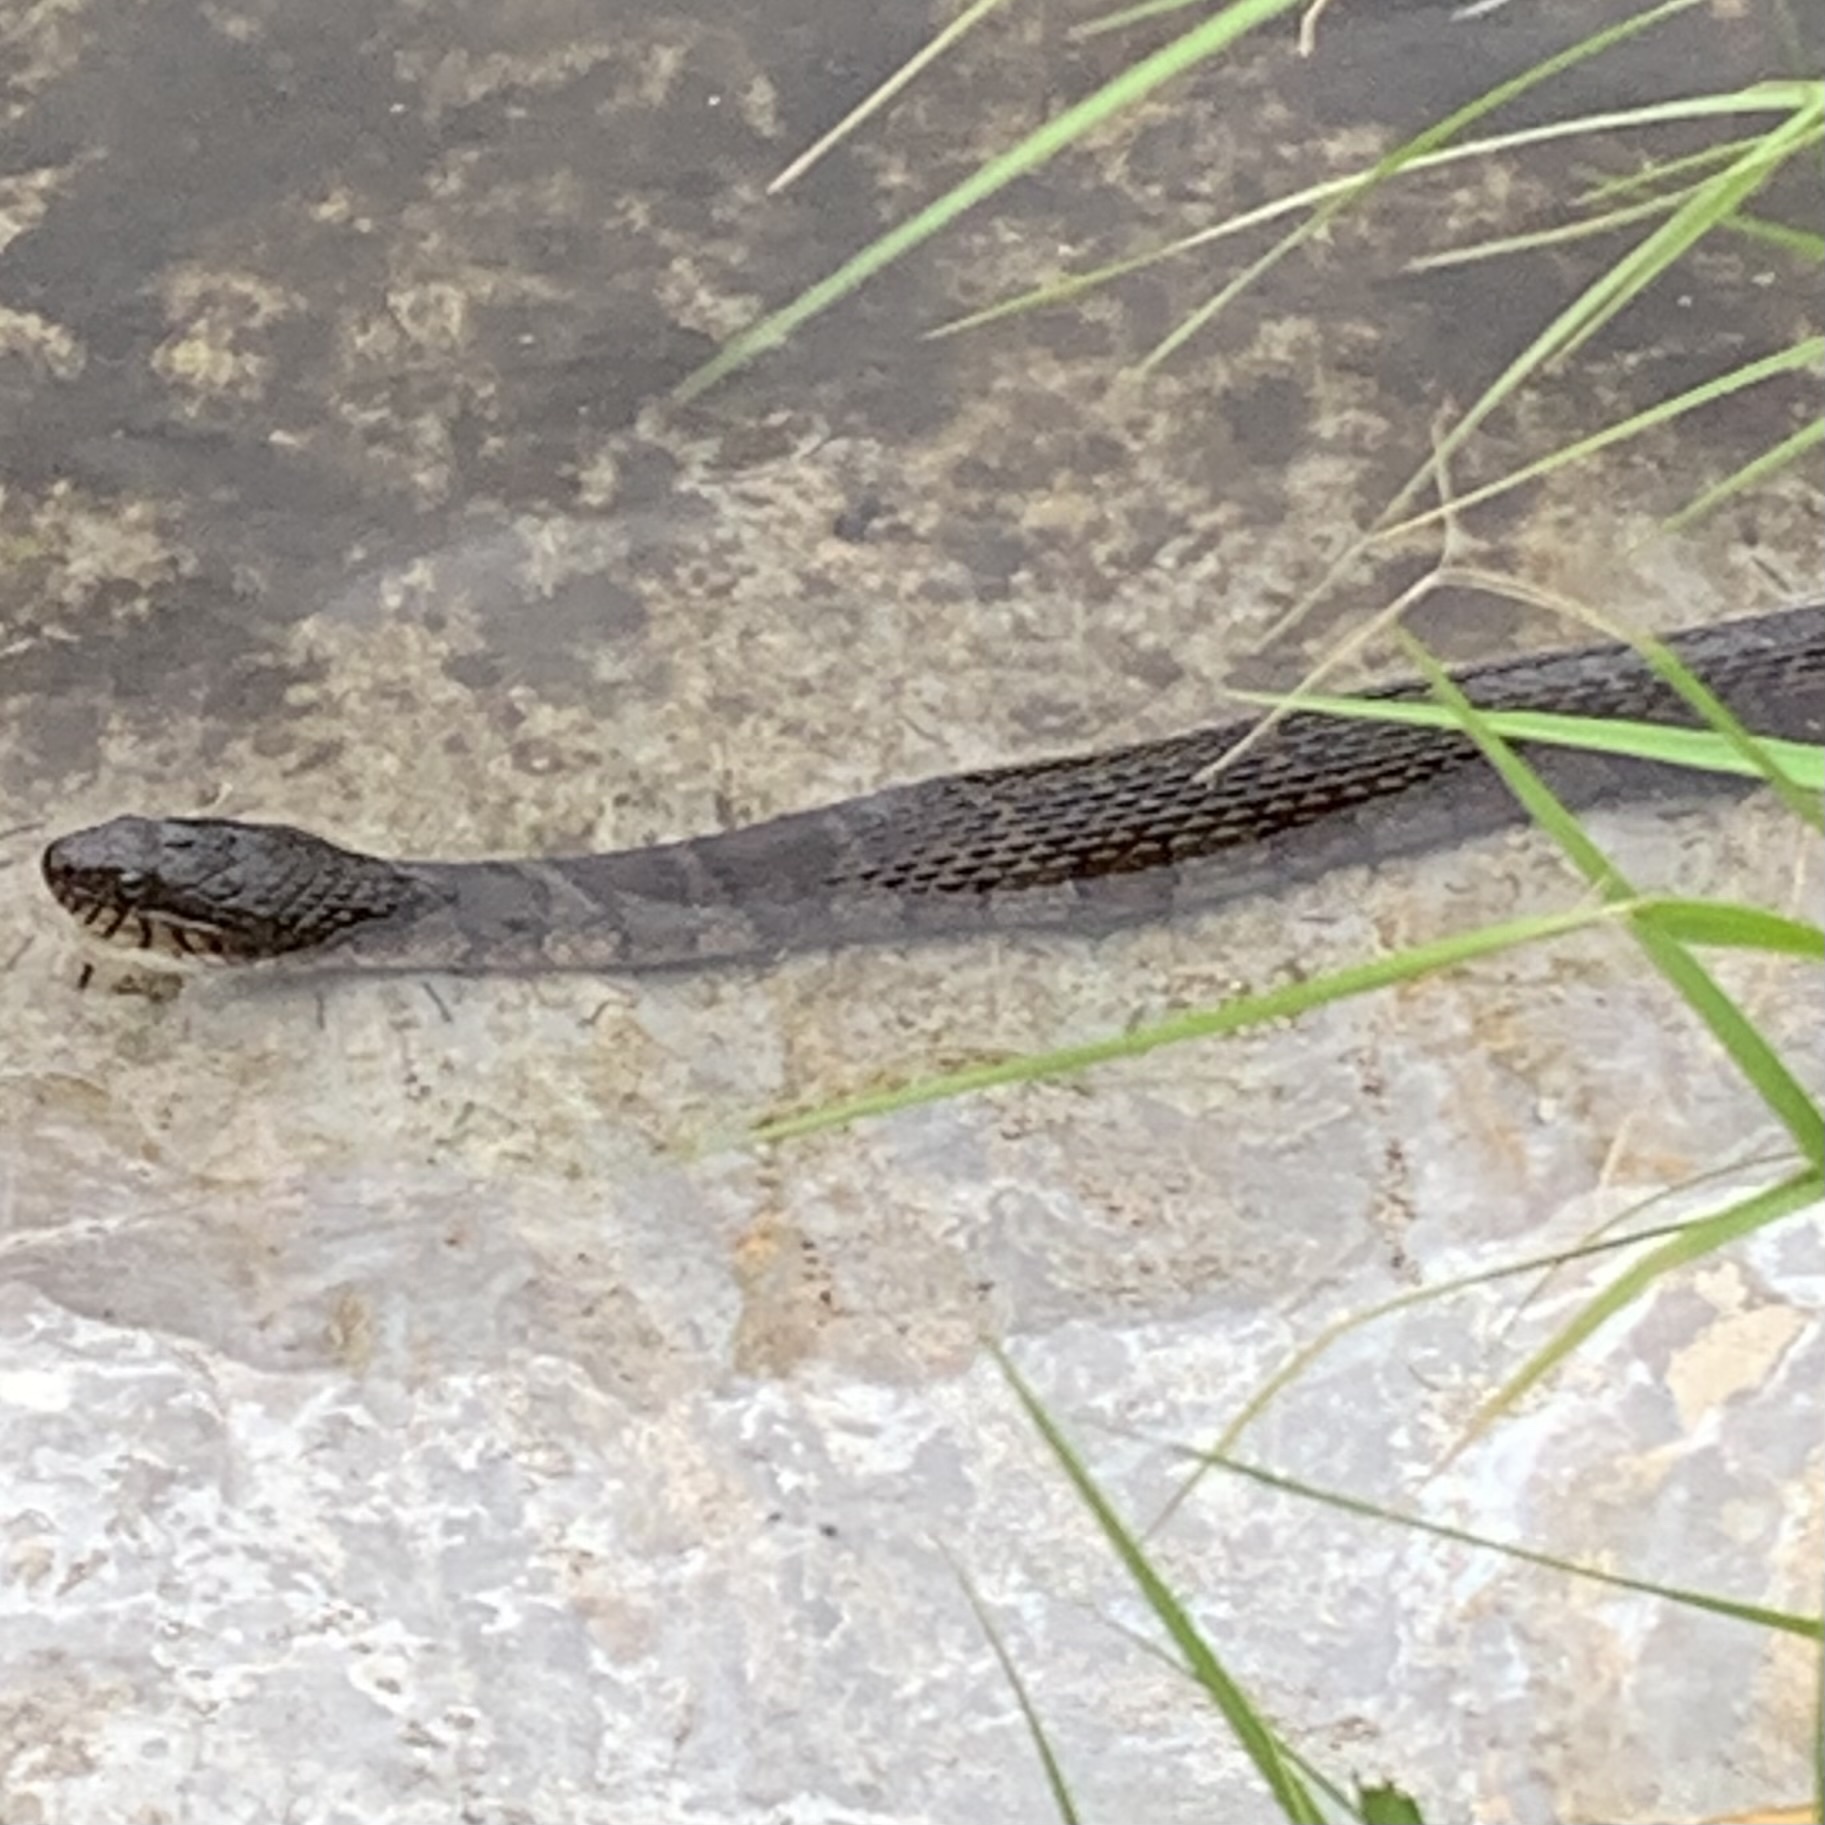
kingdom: Animalia
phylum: Chordata
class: Squamata
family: Colubridae
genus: Nerodia
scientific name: Nerodia sipedon
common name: Northern water snake
